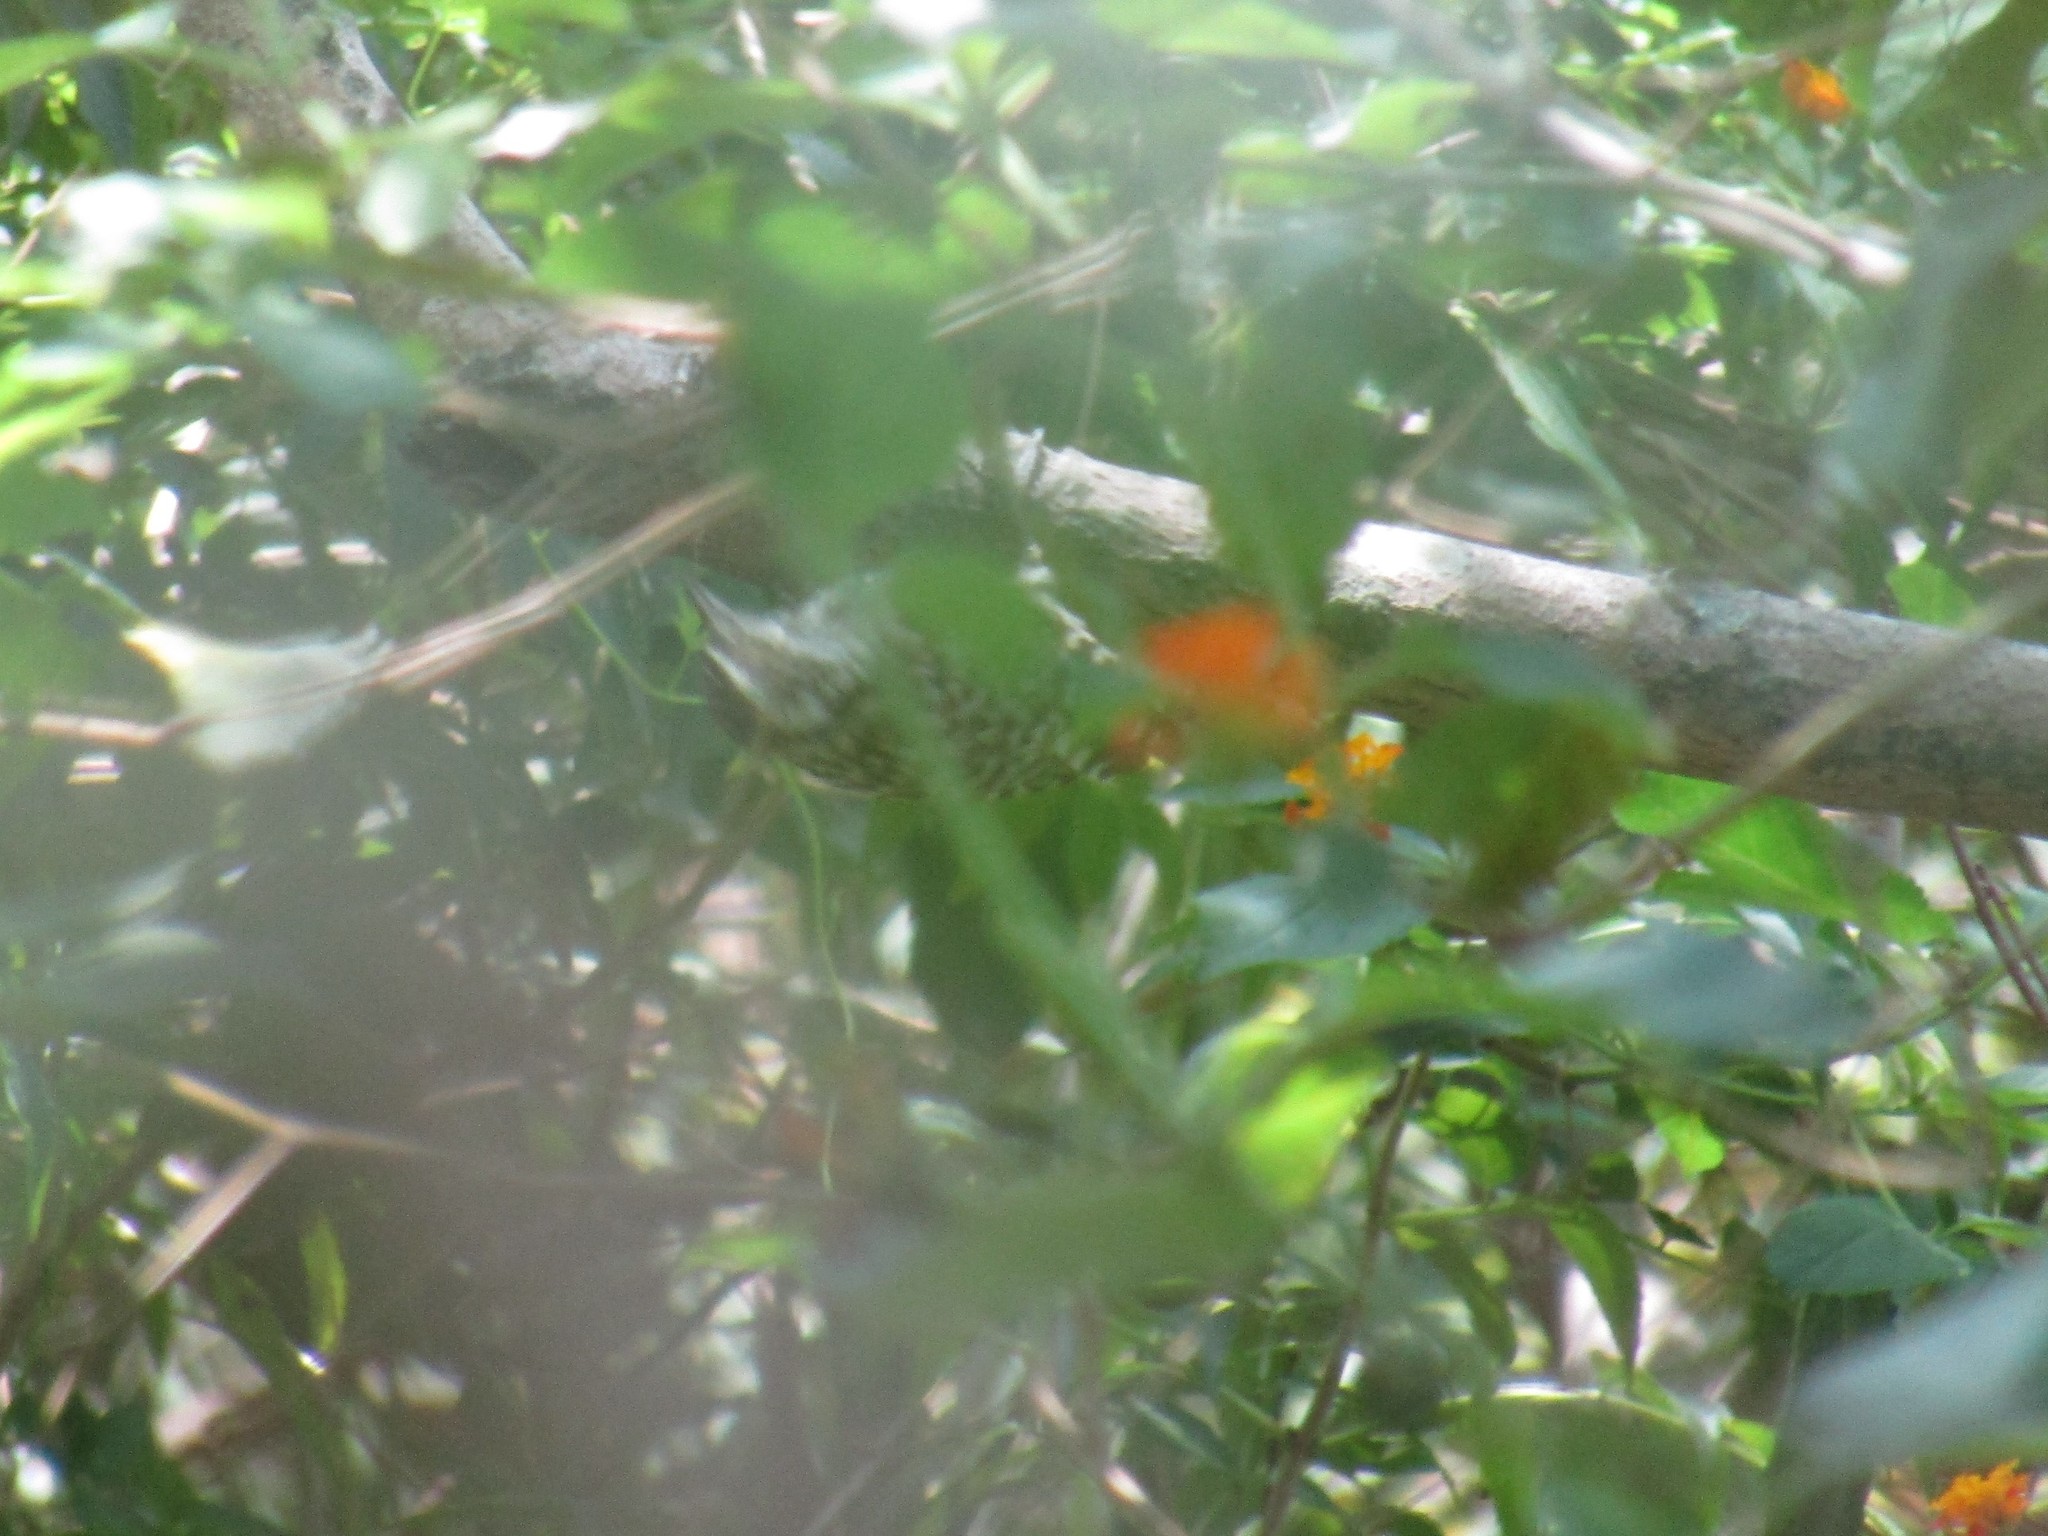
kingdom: Animalia
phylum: Chordata
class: Aves
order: Piciformes
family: Picidae
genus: Veniliornis
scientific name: Veniliornis mixtus
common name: Checkered woodpecker
